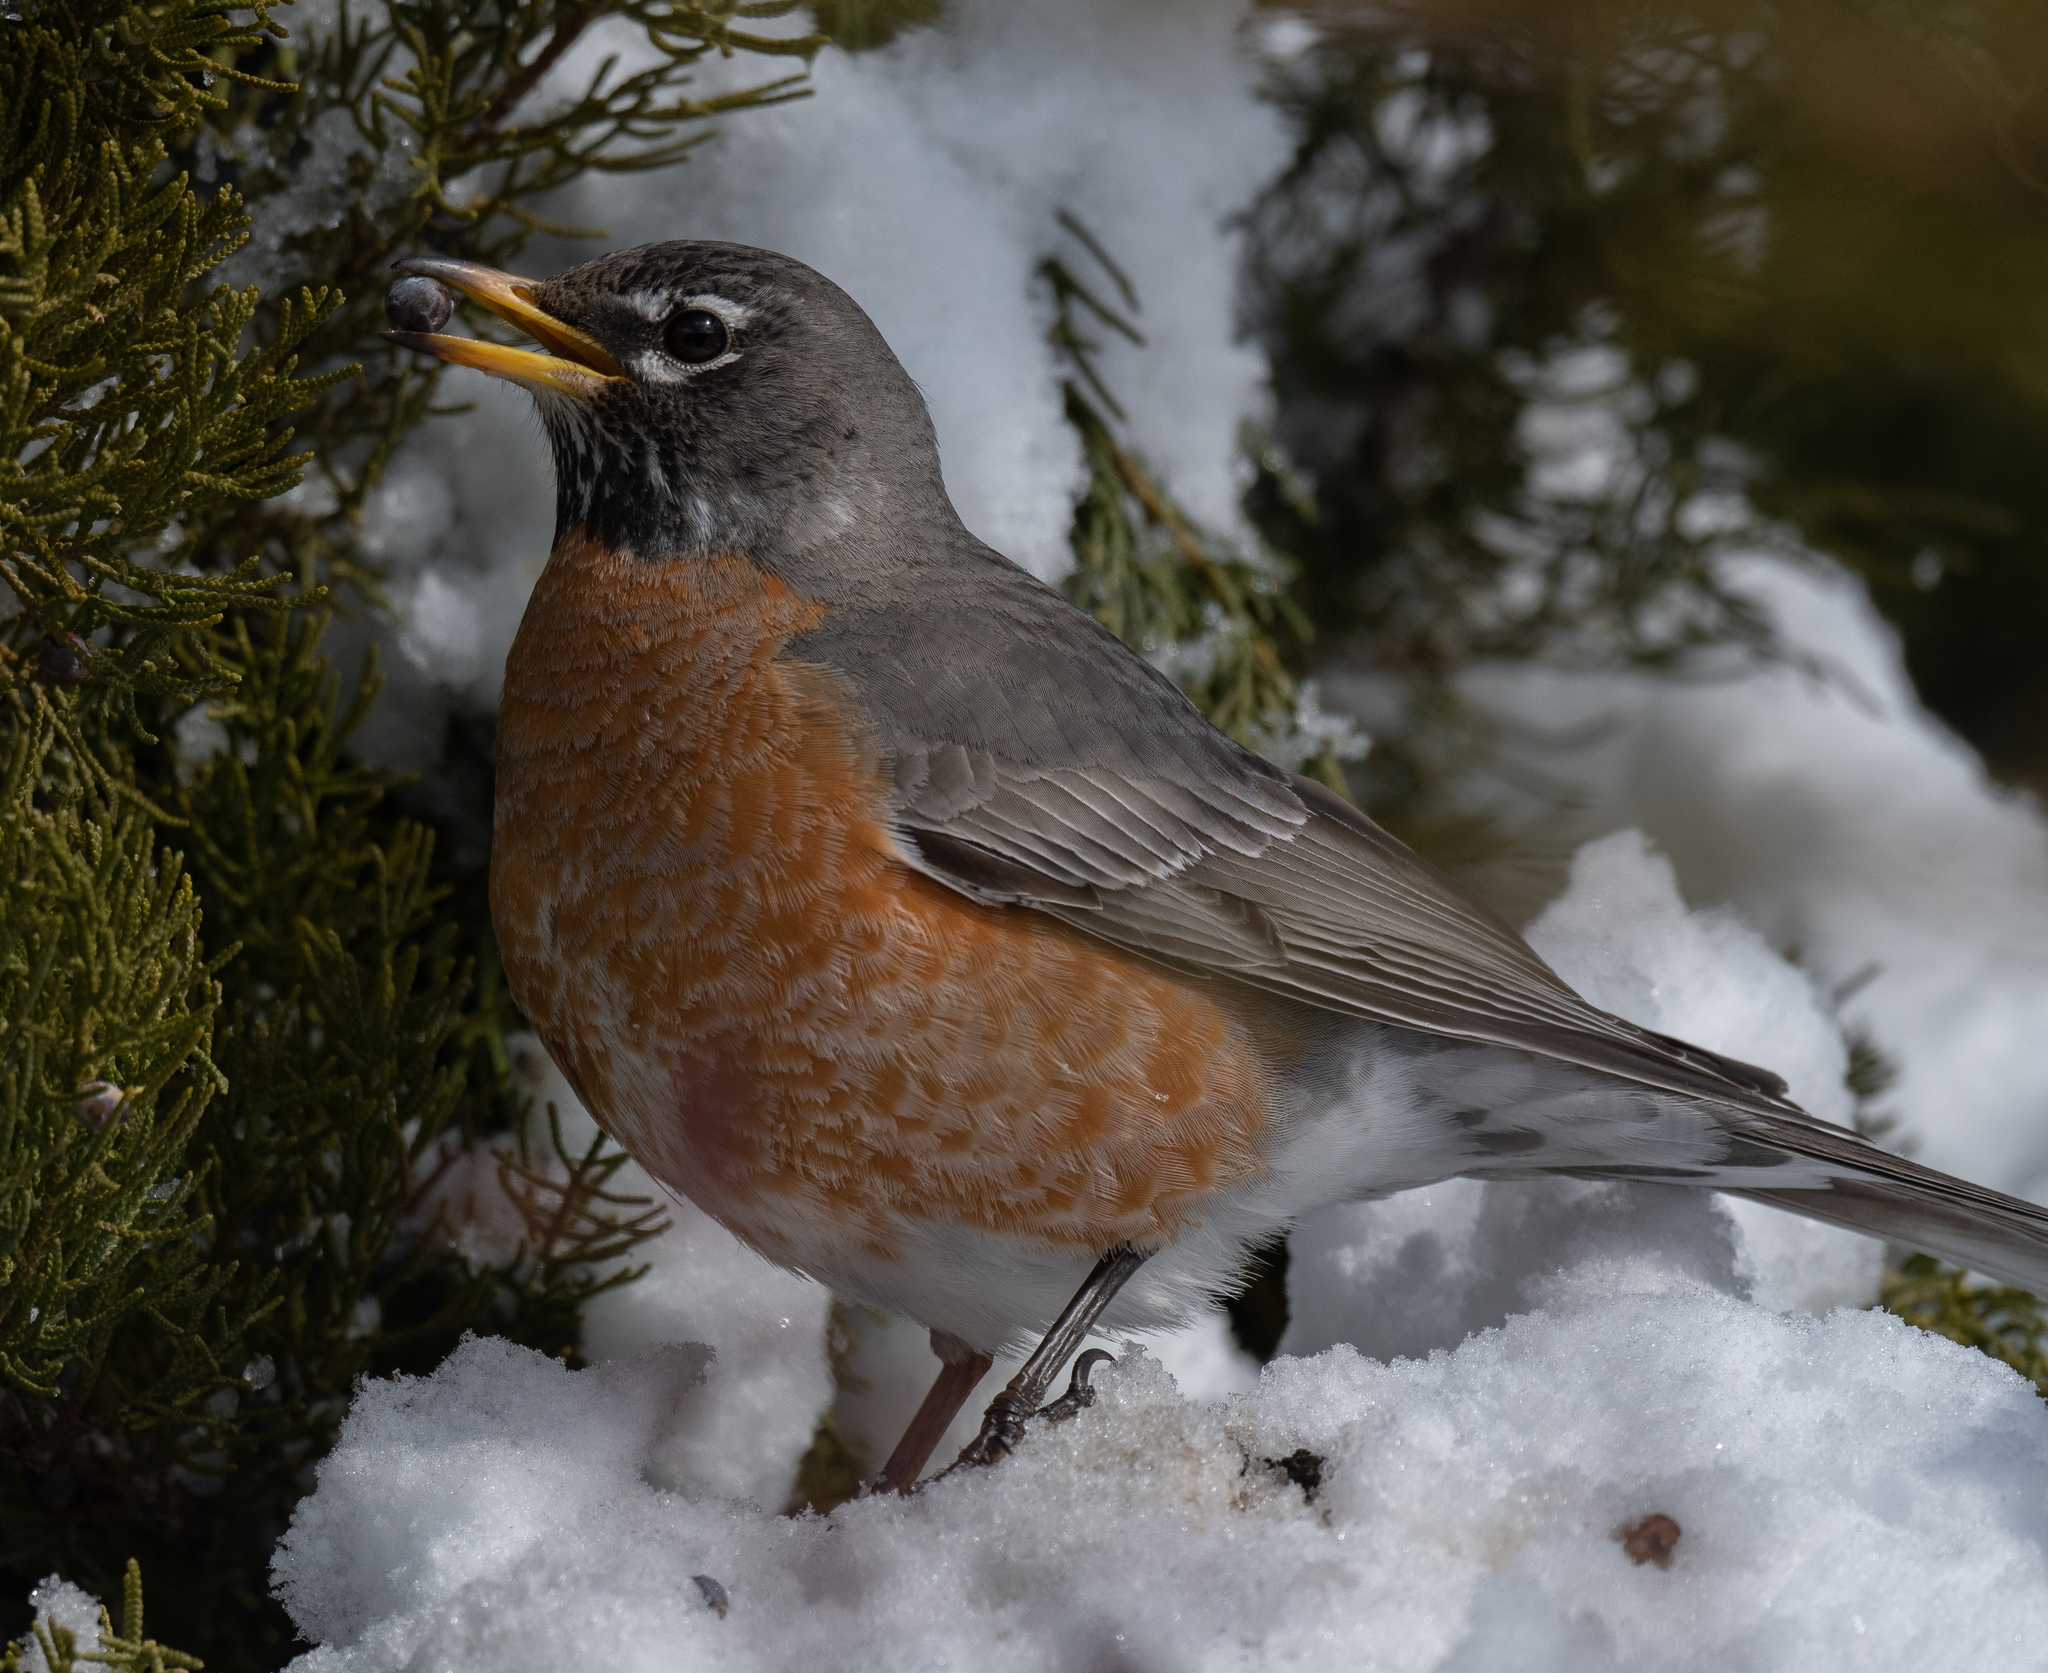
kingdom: Animalia
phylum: Chordata
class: Aves
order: Passeriformes
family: Turdidae
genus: Turdus
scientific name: Turdus migratorius
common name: American robin
